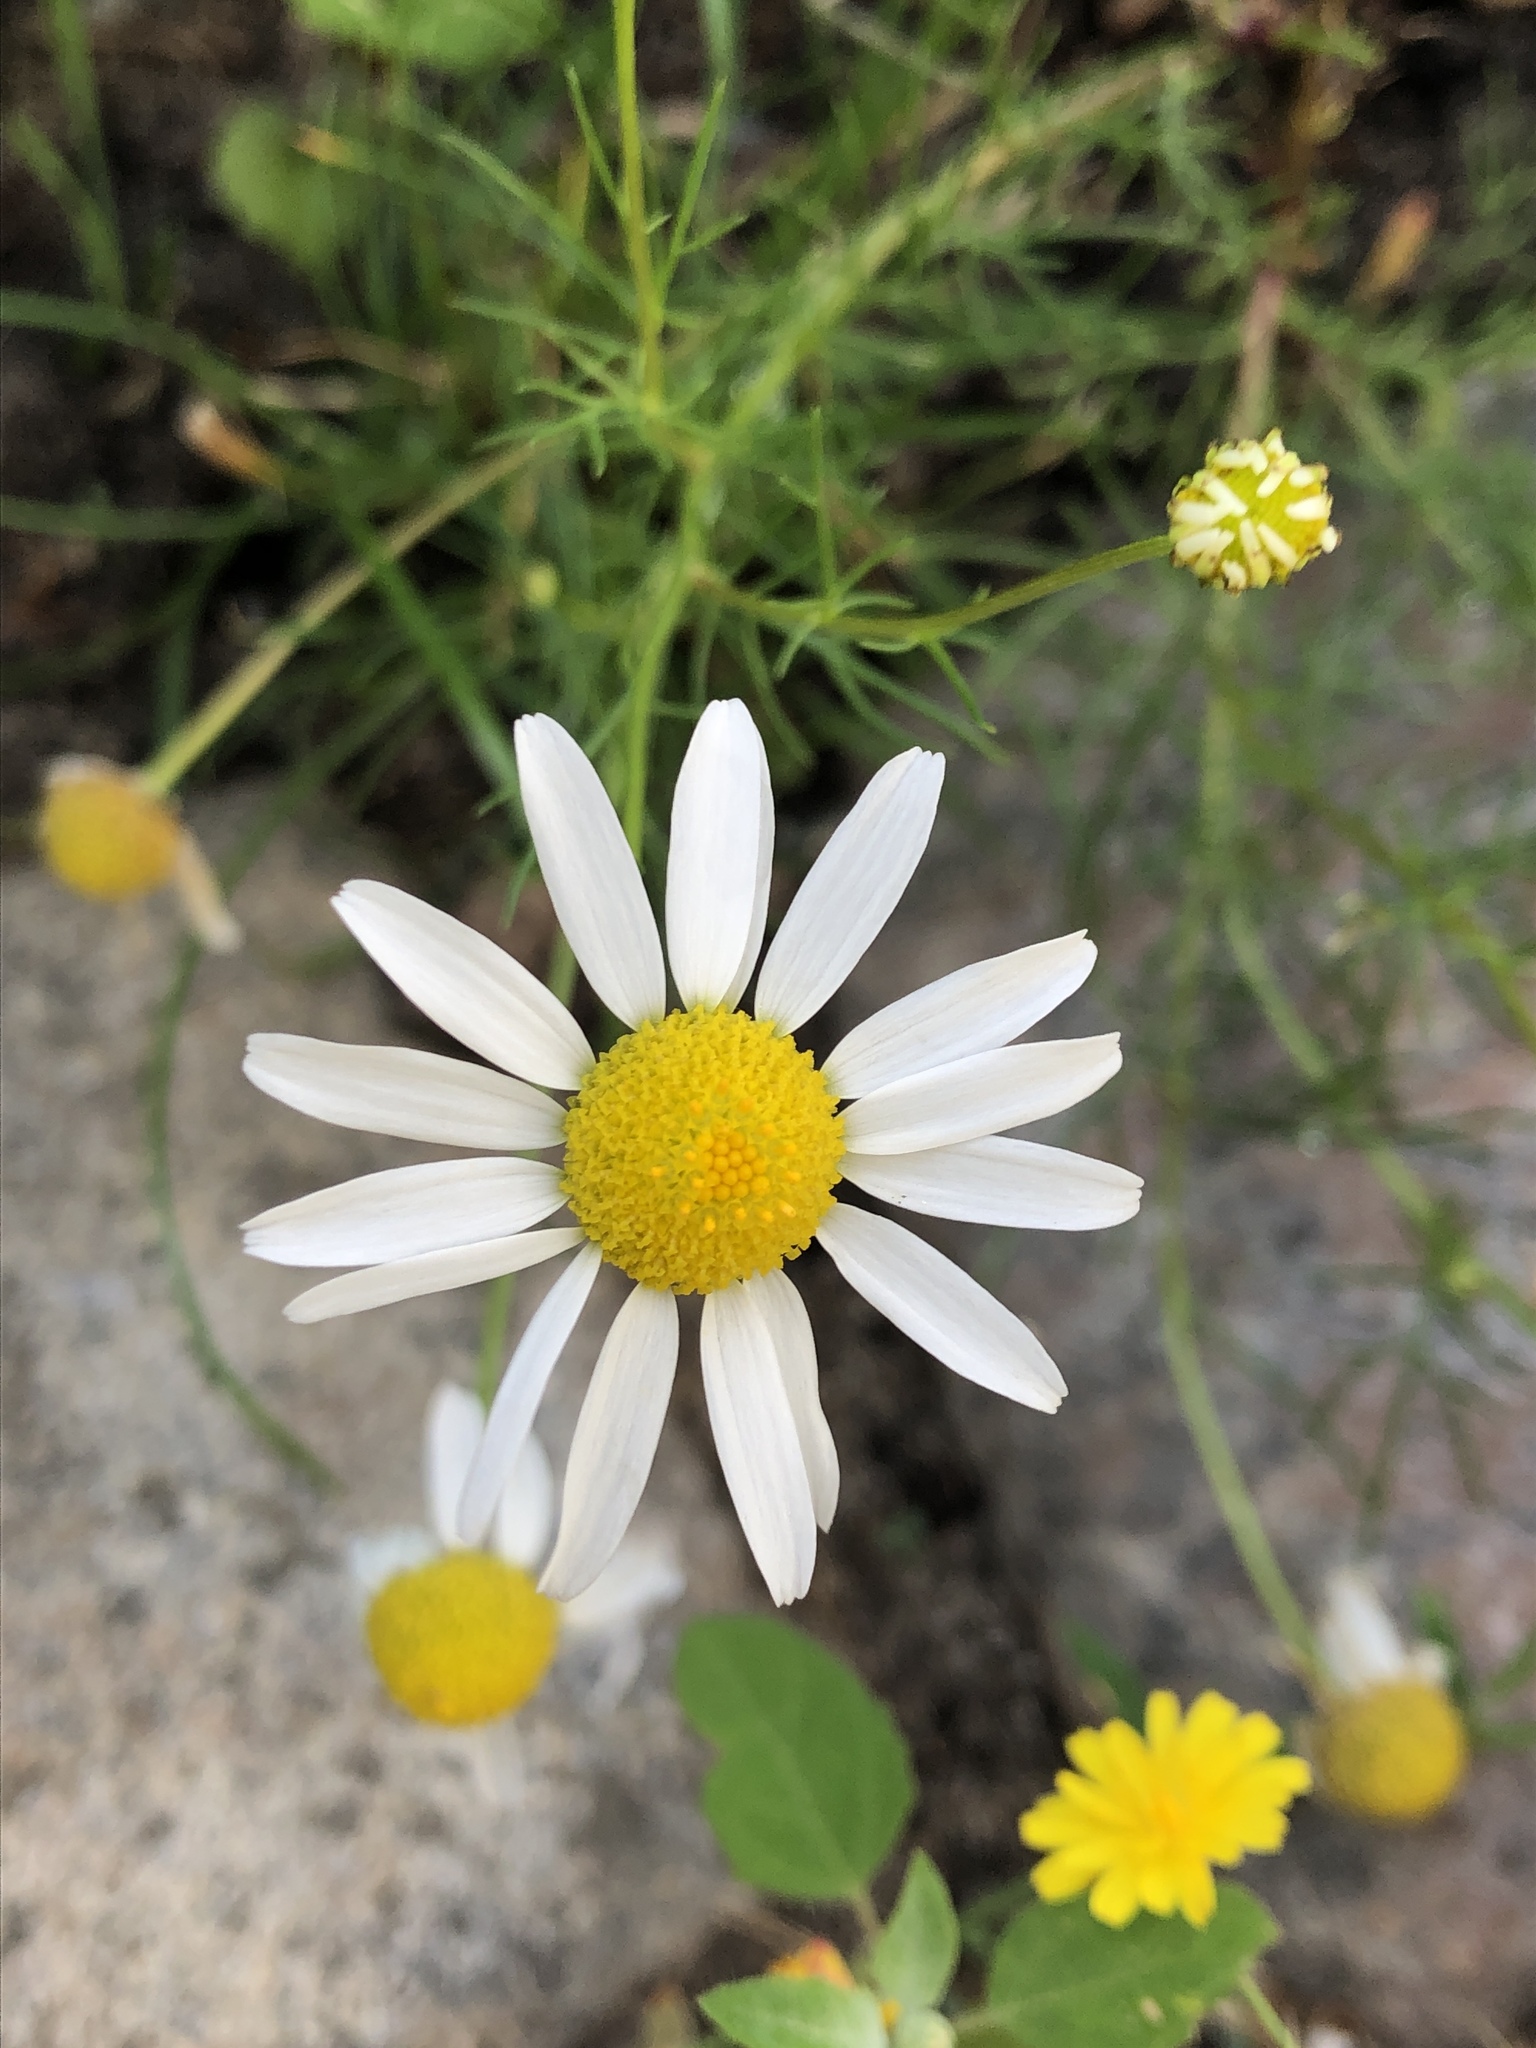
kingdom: Plantae
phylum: Tracheophyta
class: Magnoliopsida
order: Asterales
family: Asteraceae
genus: Tripleurospermum
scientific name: Tripleurospermum inodorum
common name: Scentless mayweed
